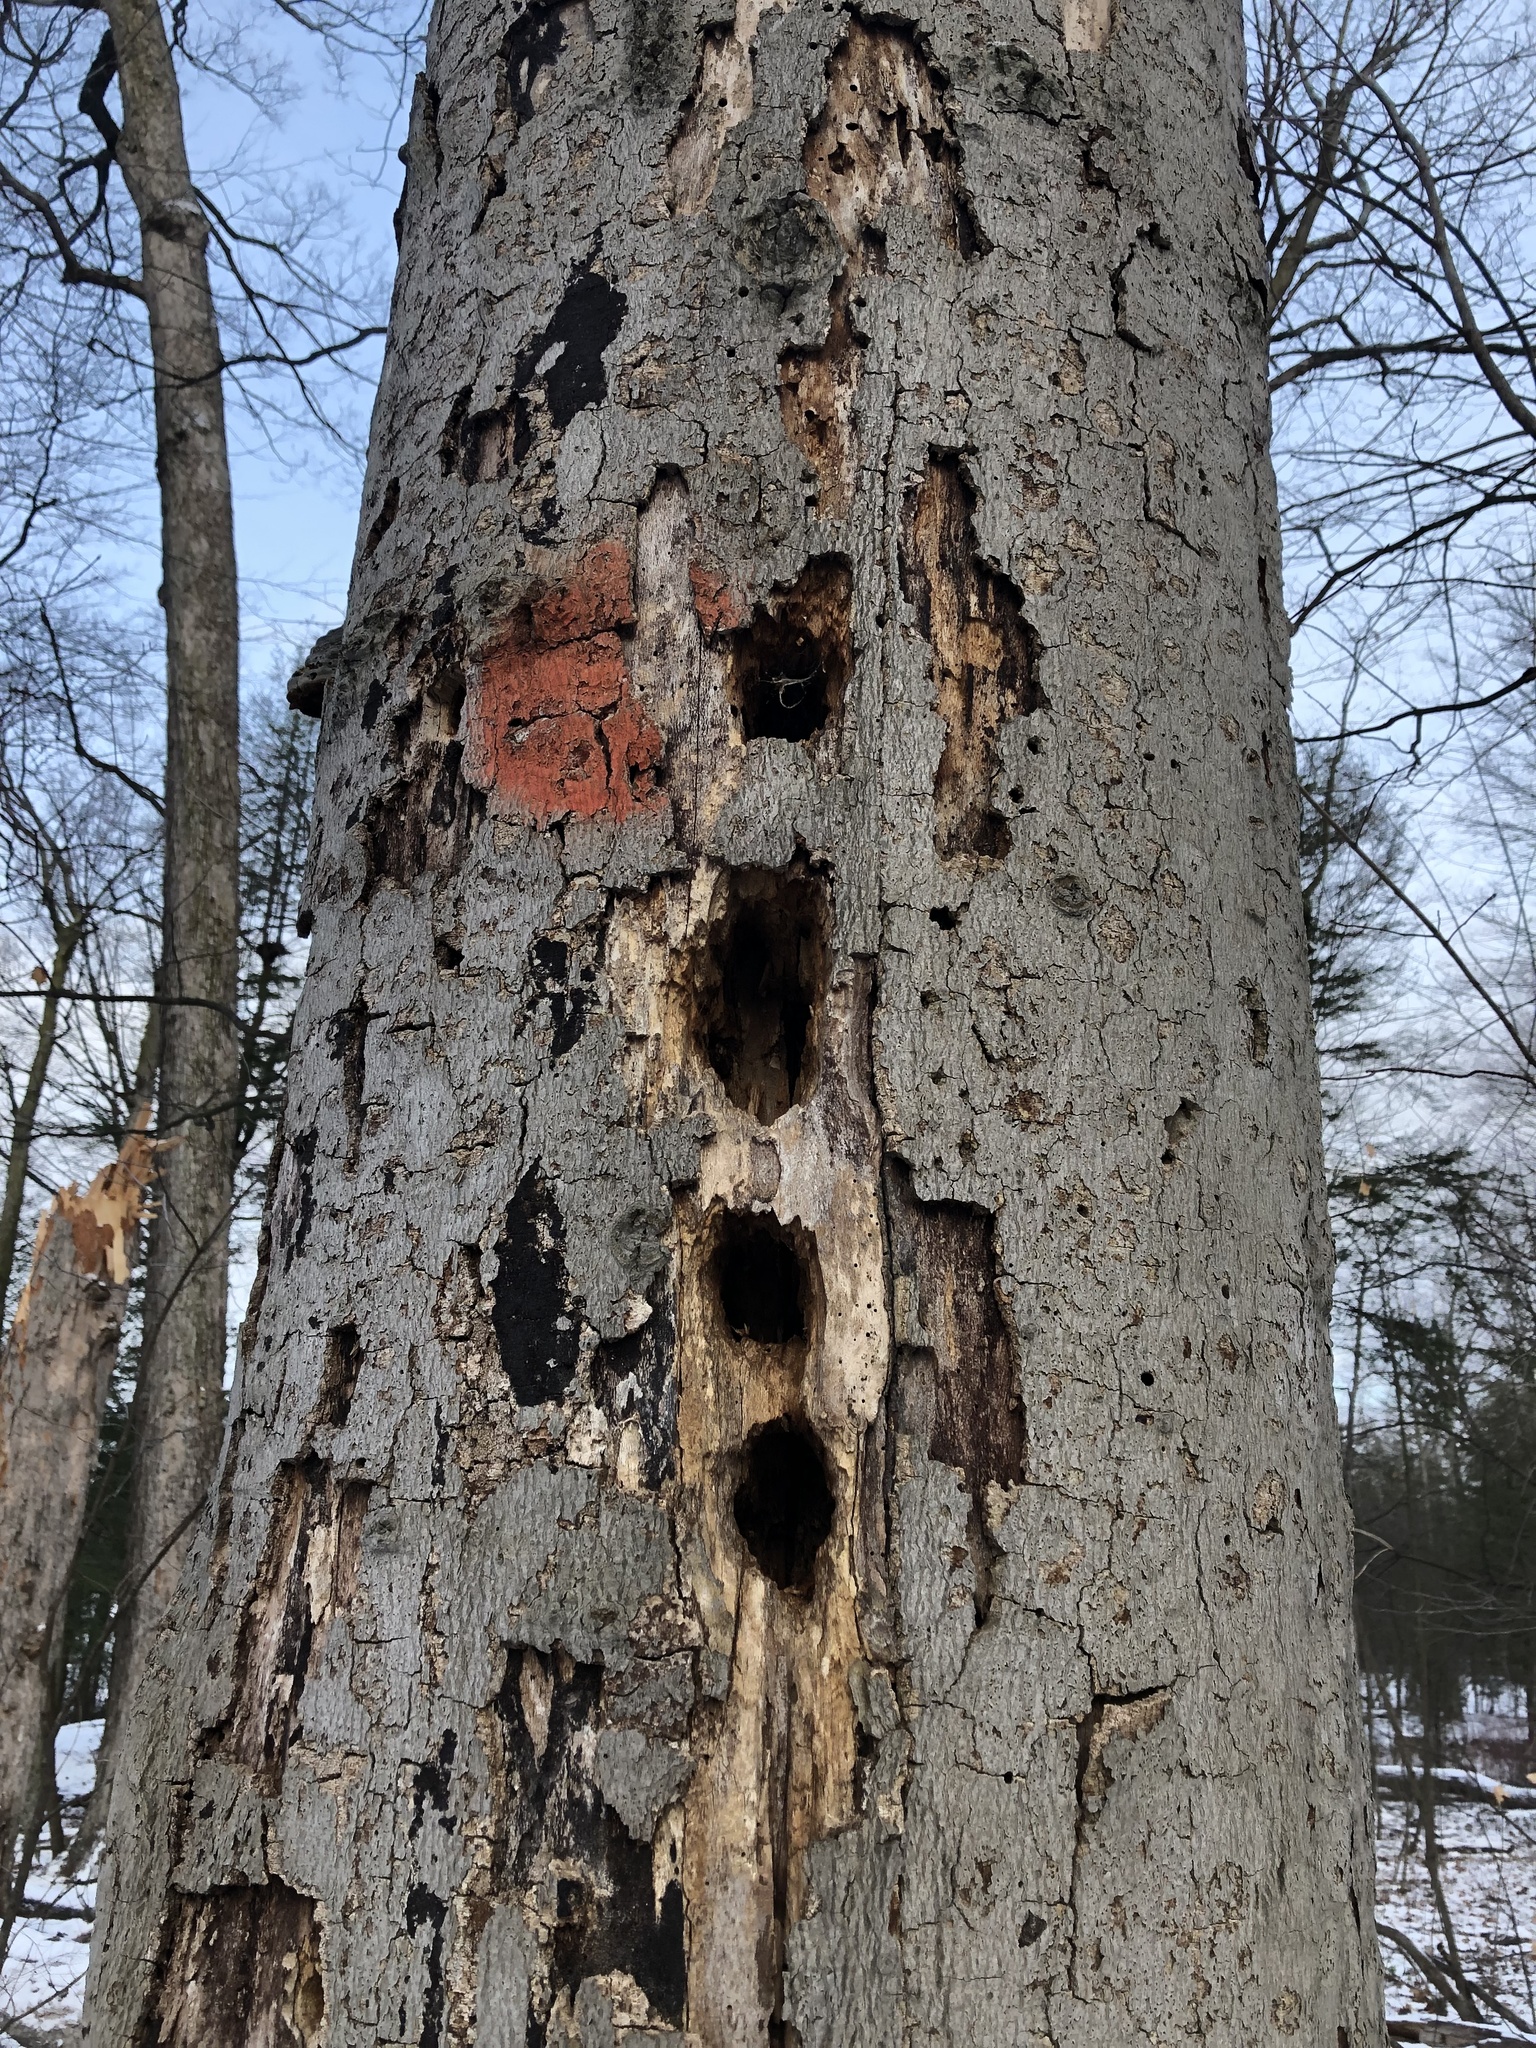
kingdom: Animalia
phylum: Chordata
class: Aves
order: Piciformes
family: Picidae
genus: Dryocopus
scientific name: Dryocopus pileatus
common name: Pileated woodpecker
